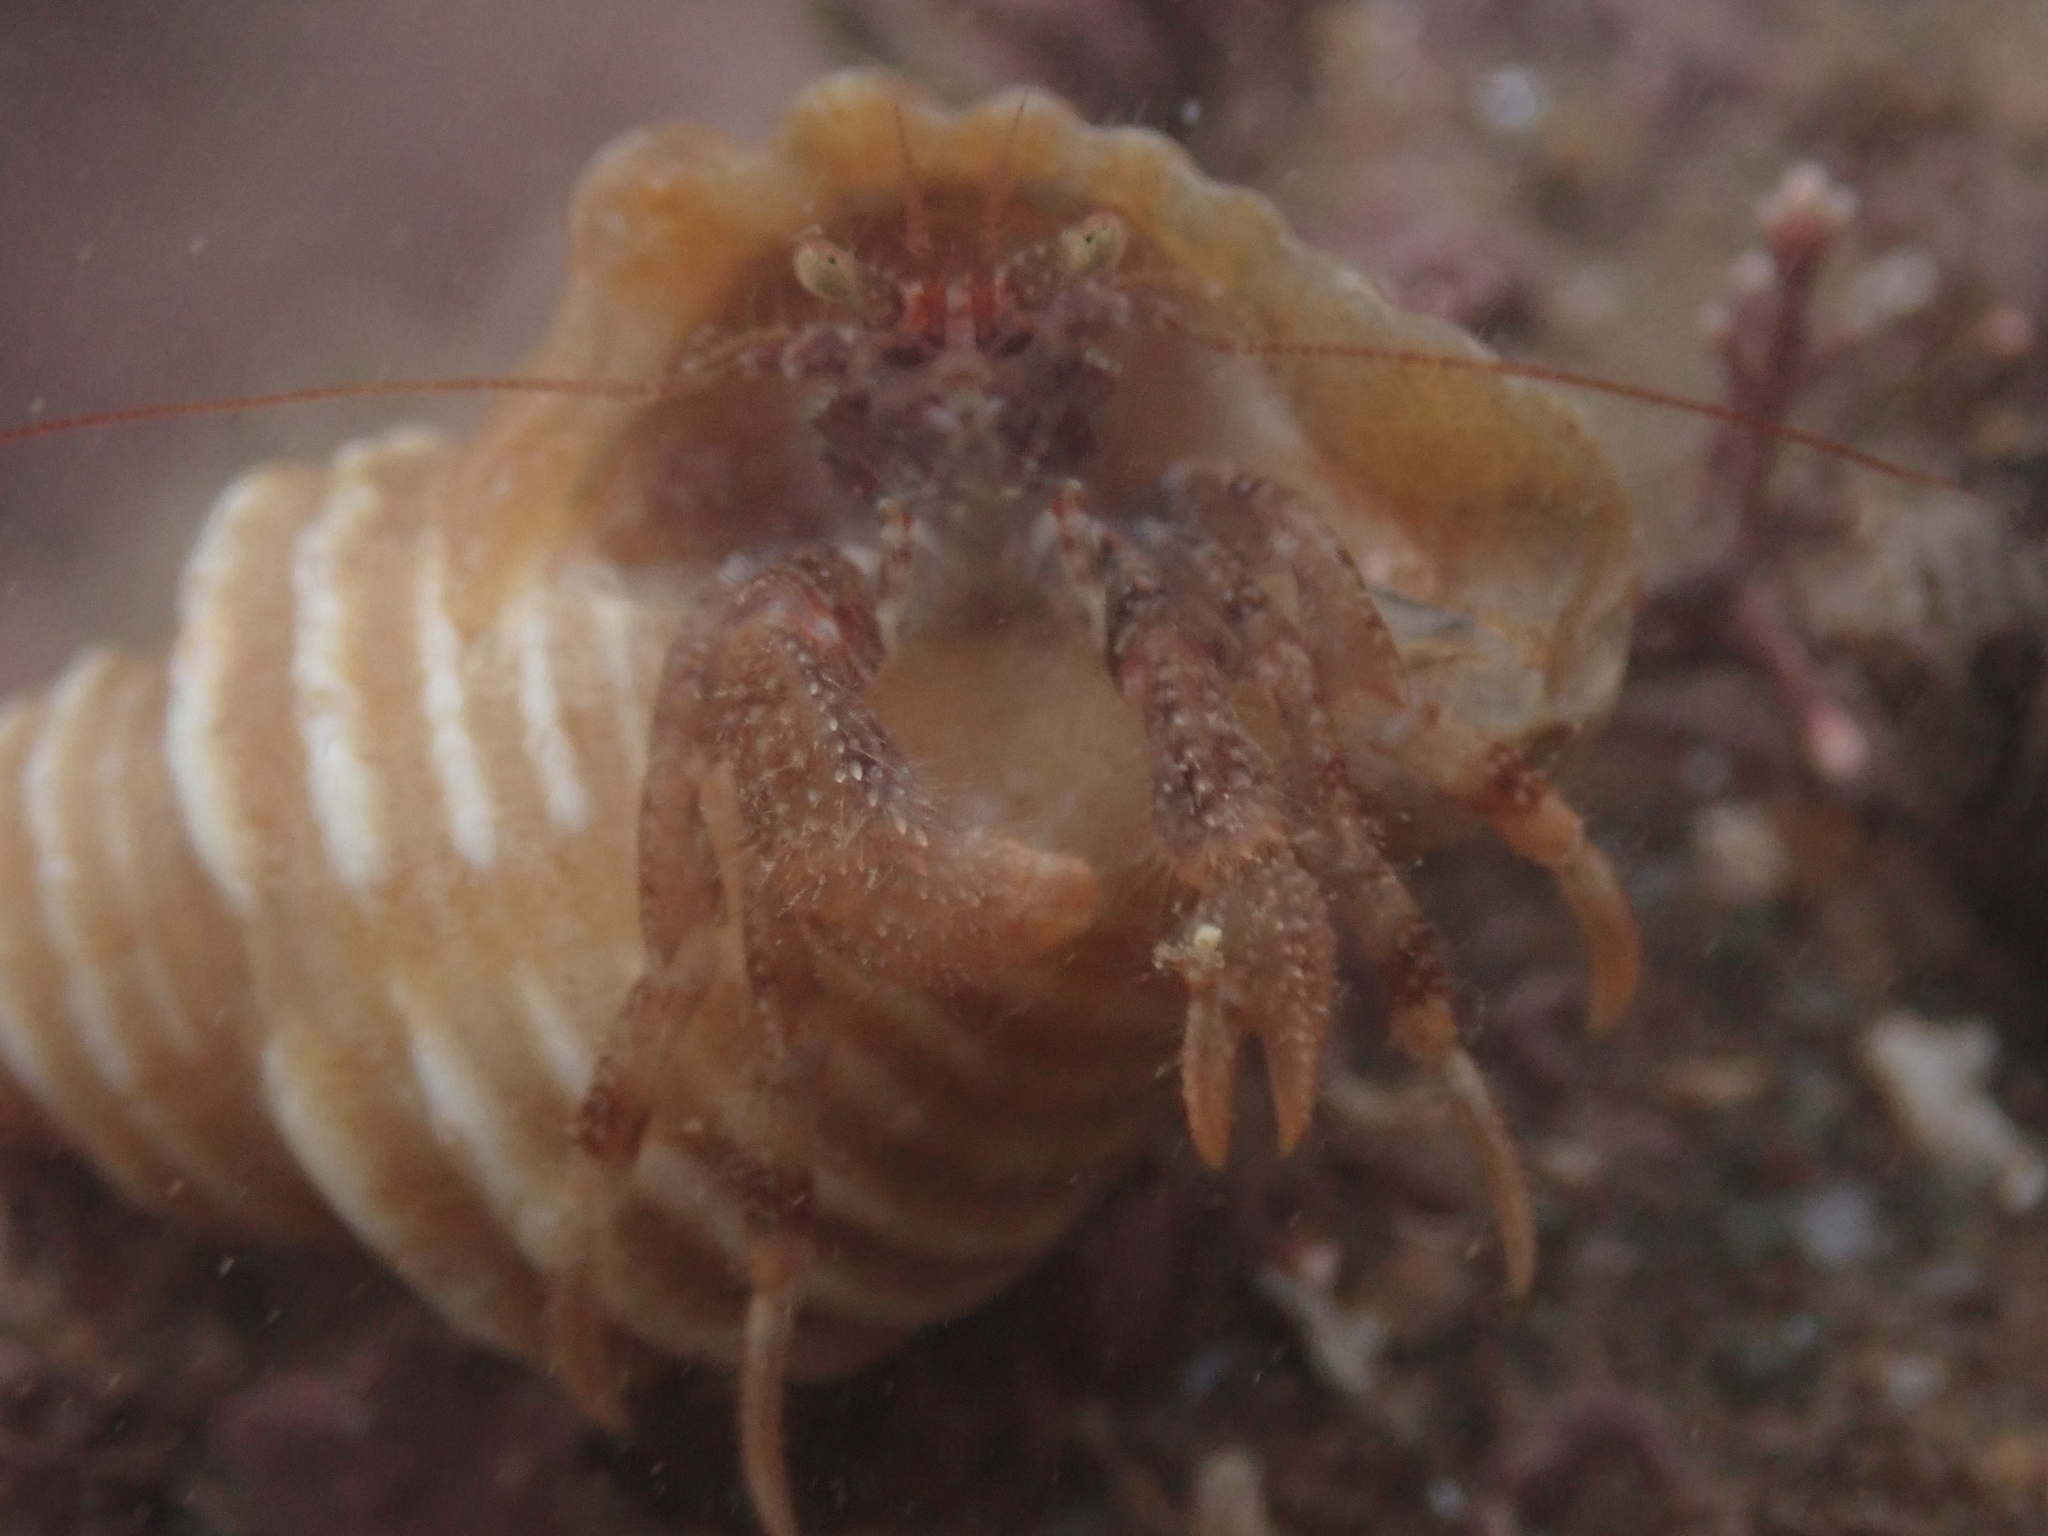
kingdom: Animalia
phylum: Arthropoda
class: Malacostraca
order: Decapoda
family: Paguridae
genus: Pagurus
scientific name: Pagurus arcuatus
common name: Bowed hermit crab
